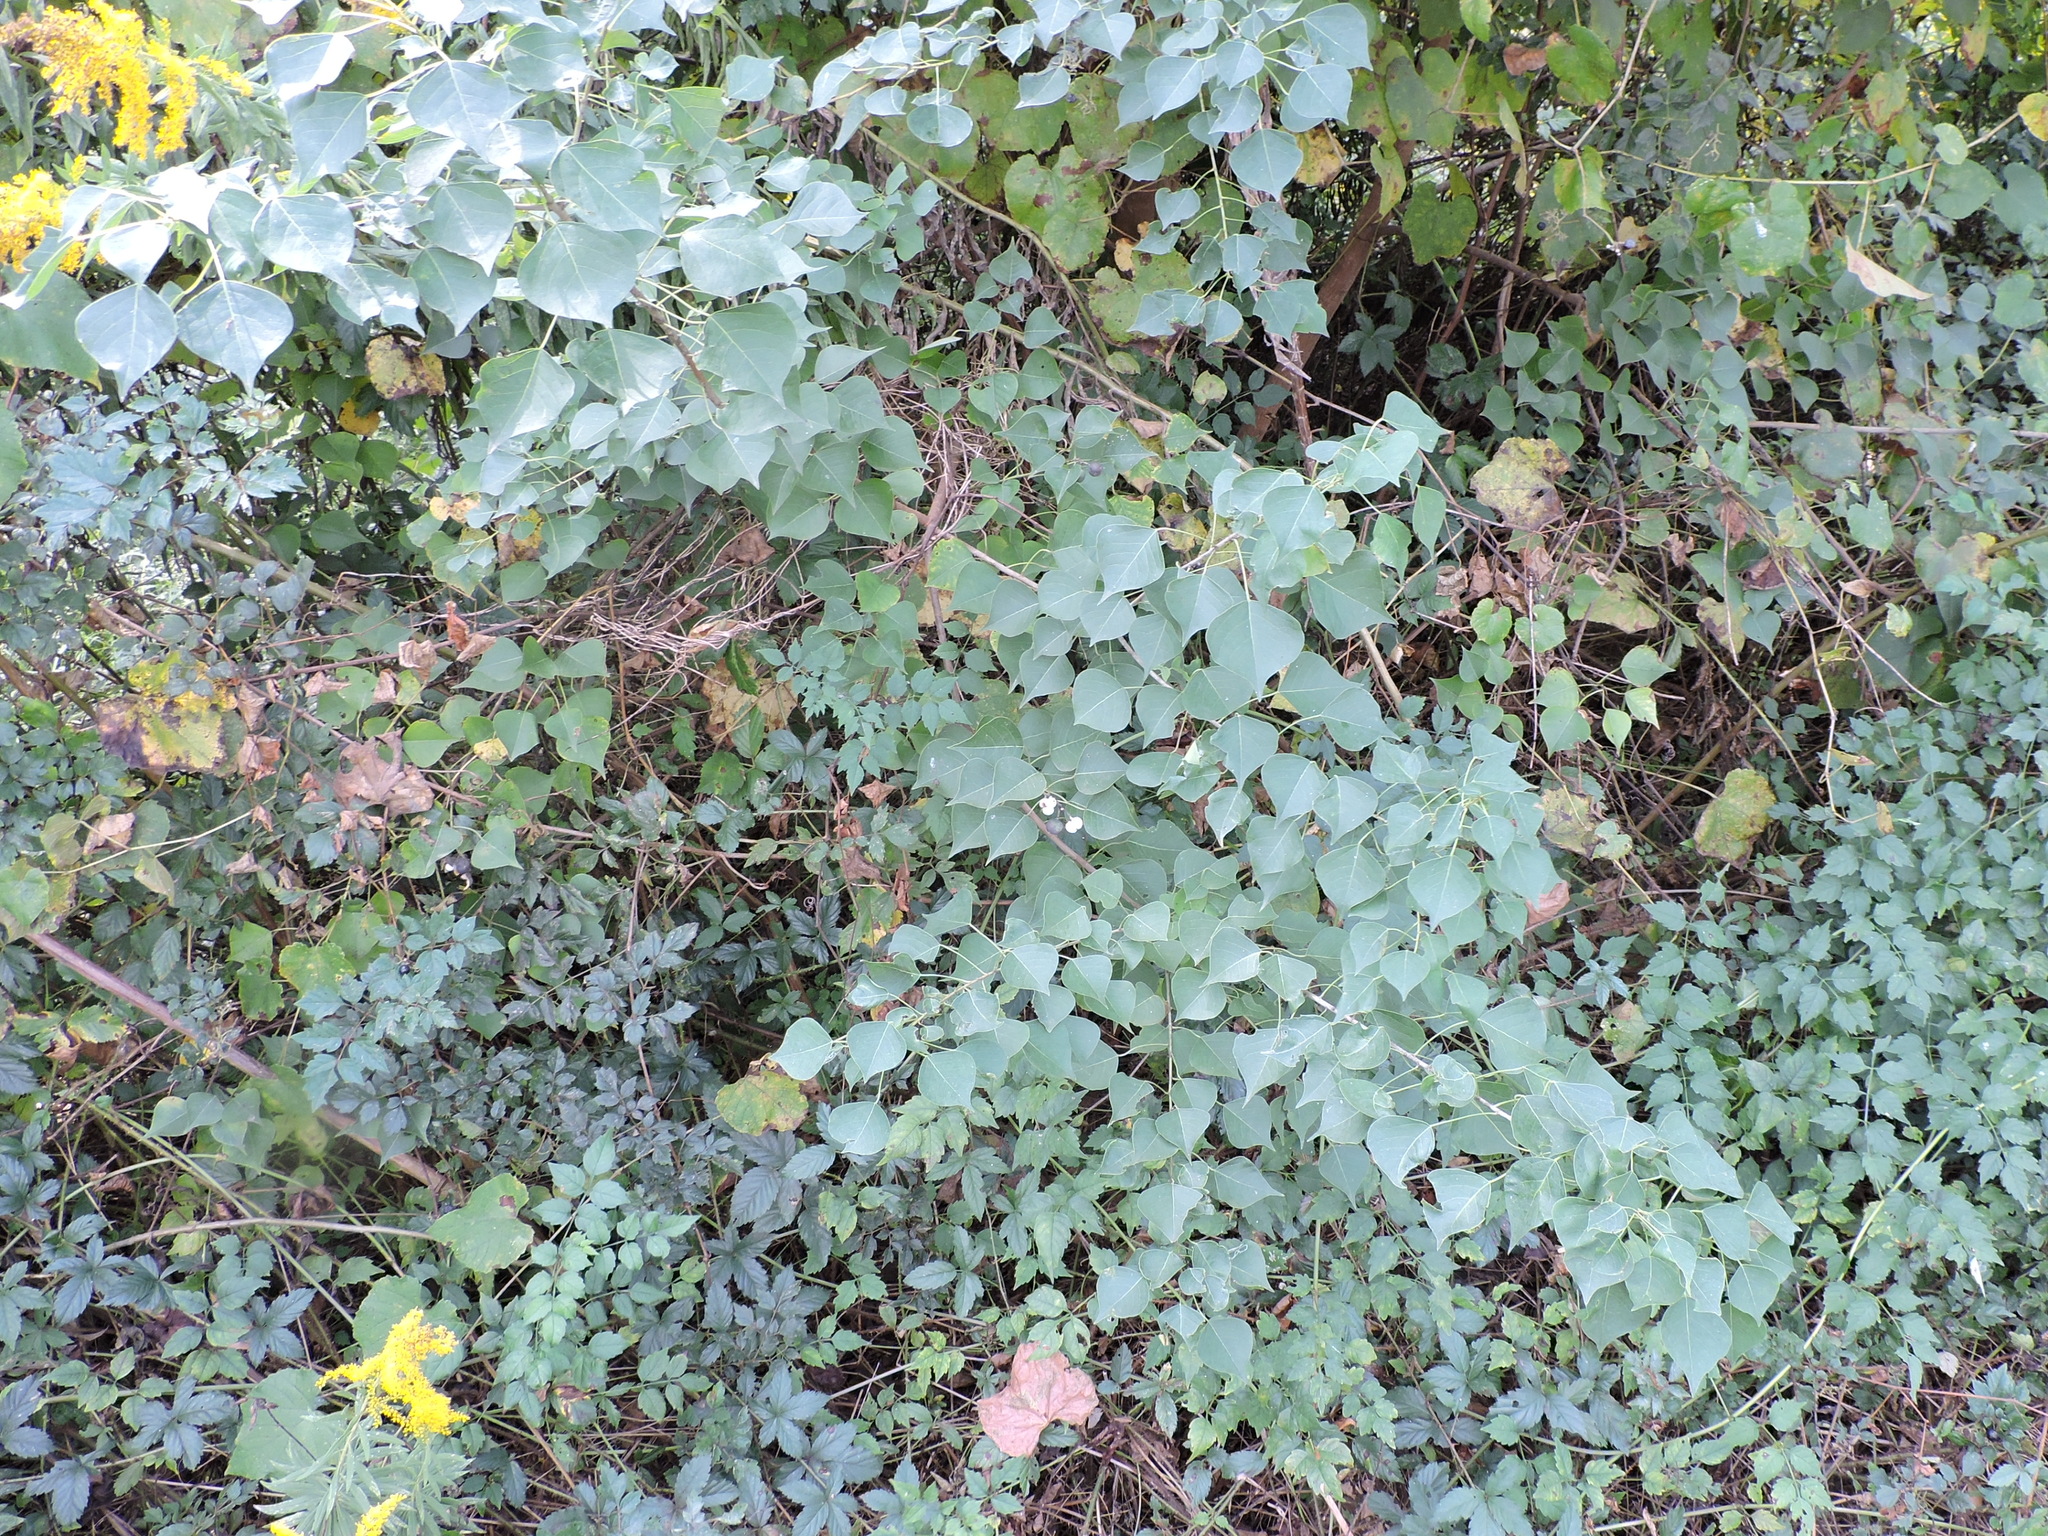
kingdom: Plantae
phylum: Tracheophyta
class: Magnoliopsida
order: Malpighiales
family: Euphorbiaceae
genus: Triadica
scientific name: Triadica sebifera
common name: Chinese tallow
